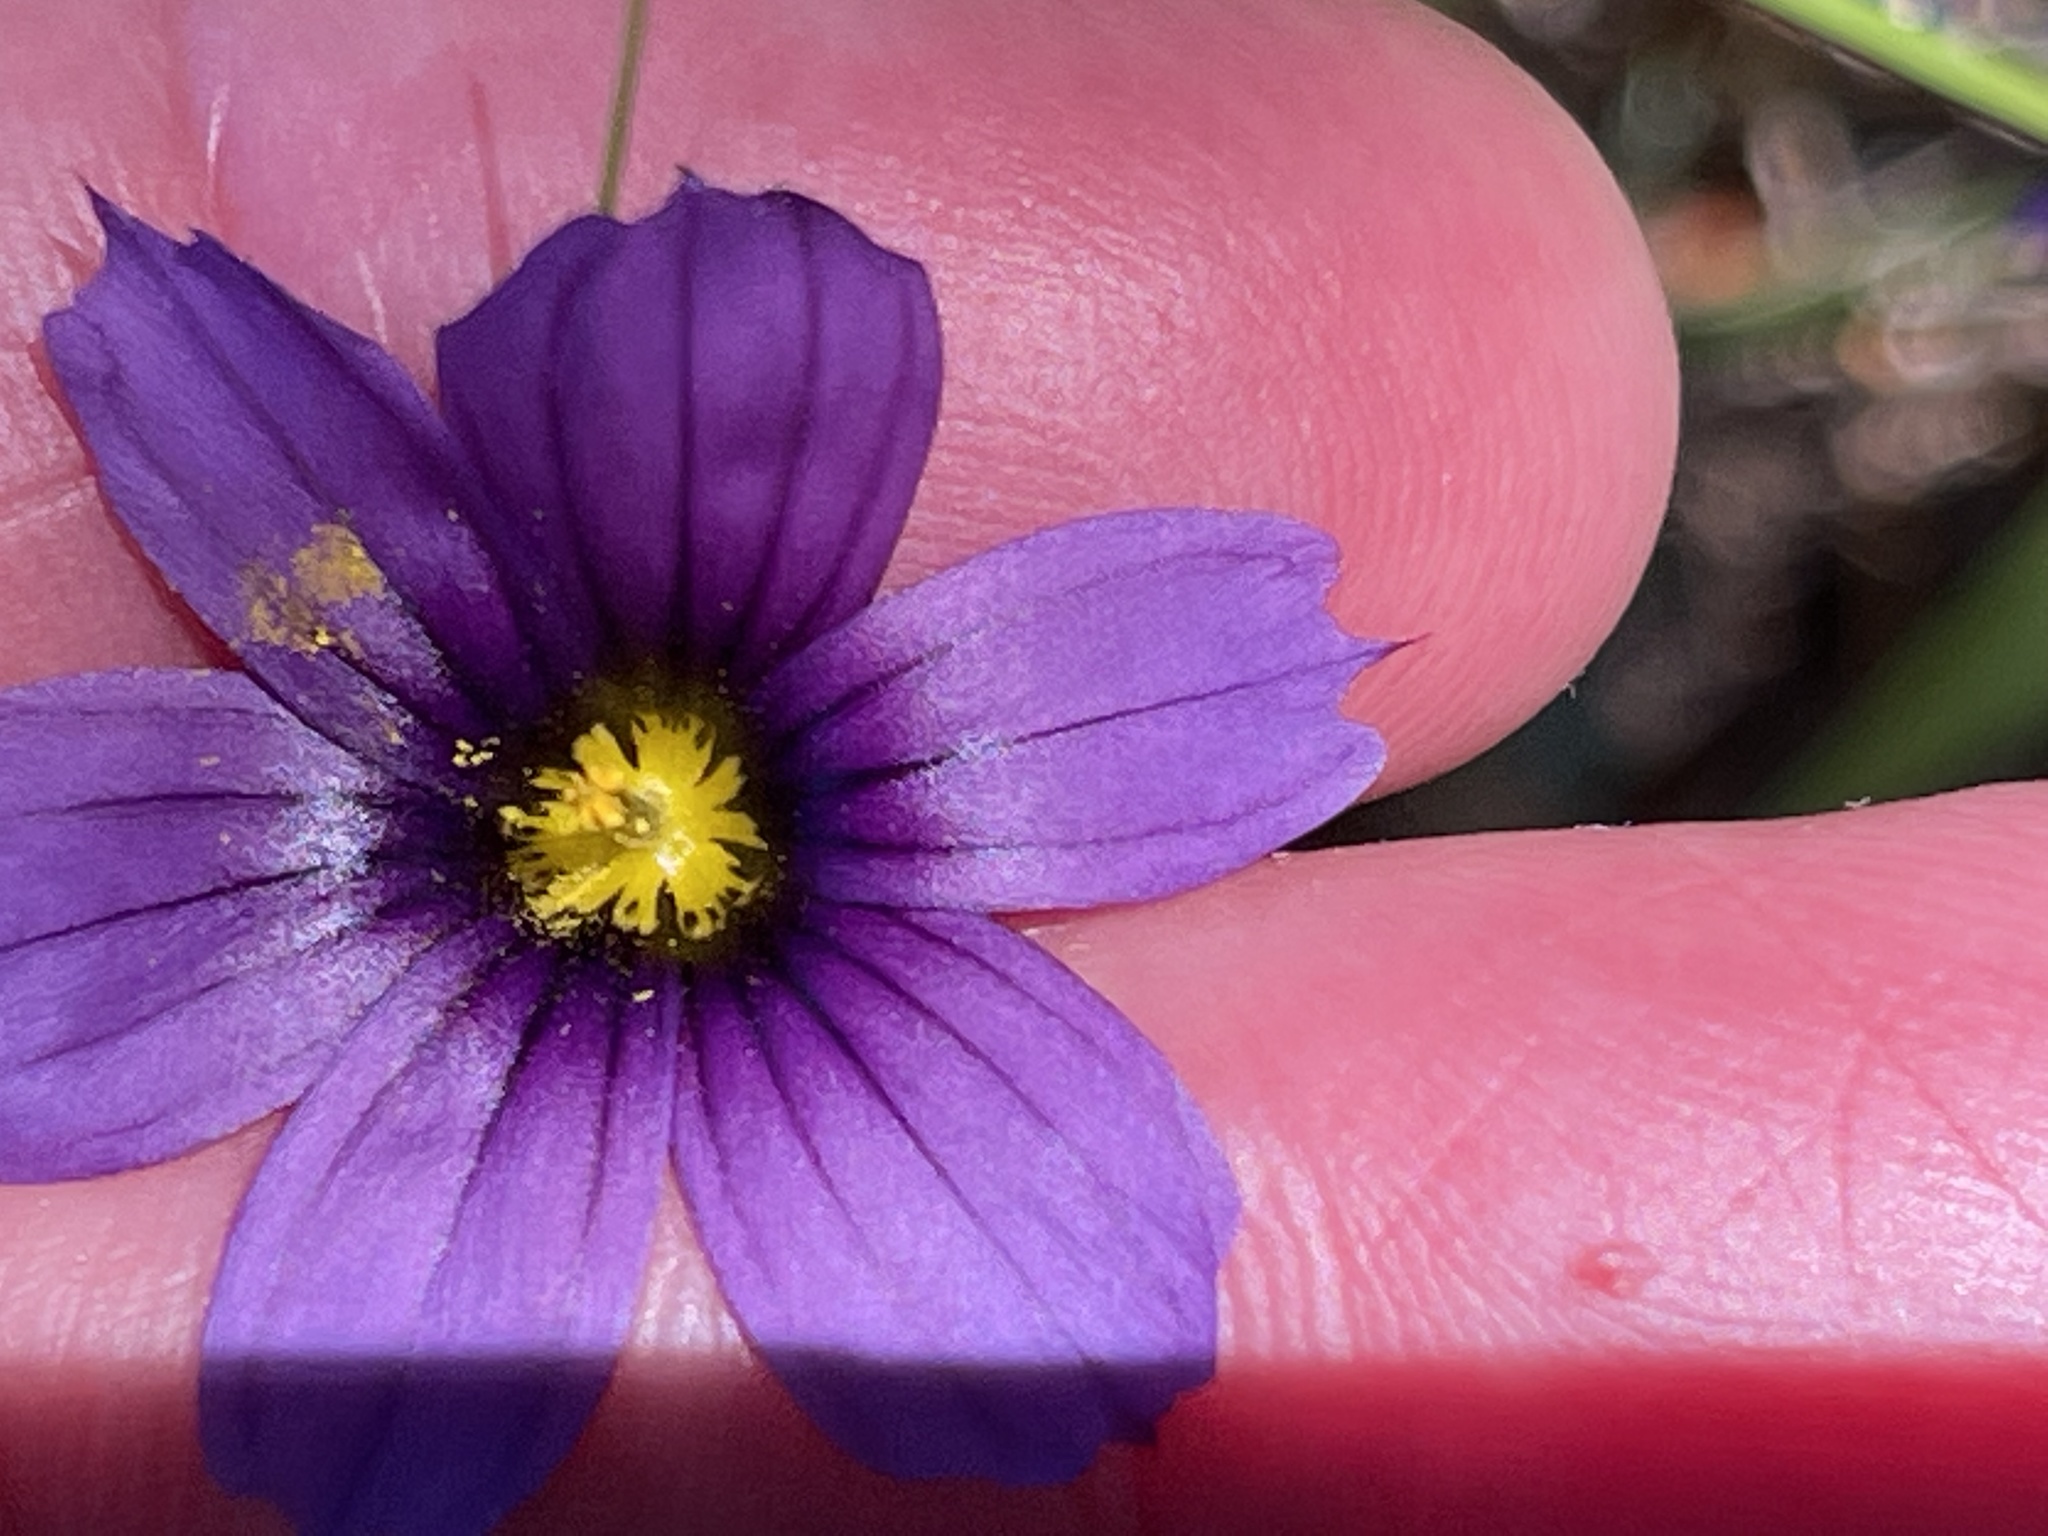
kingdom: Plantae
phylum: Tracheophyta
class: Liliopsida
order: Asparagales
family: Iridaceae
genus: Sisyrinchium
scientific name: Sisyrinchium bellum
